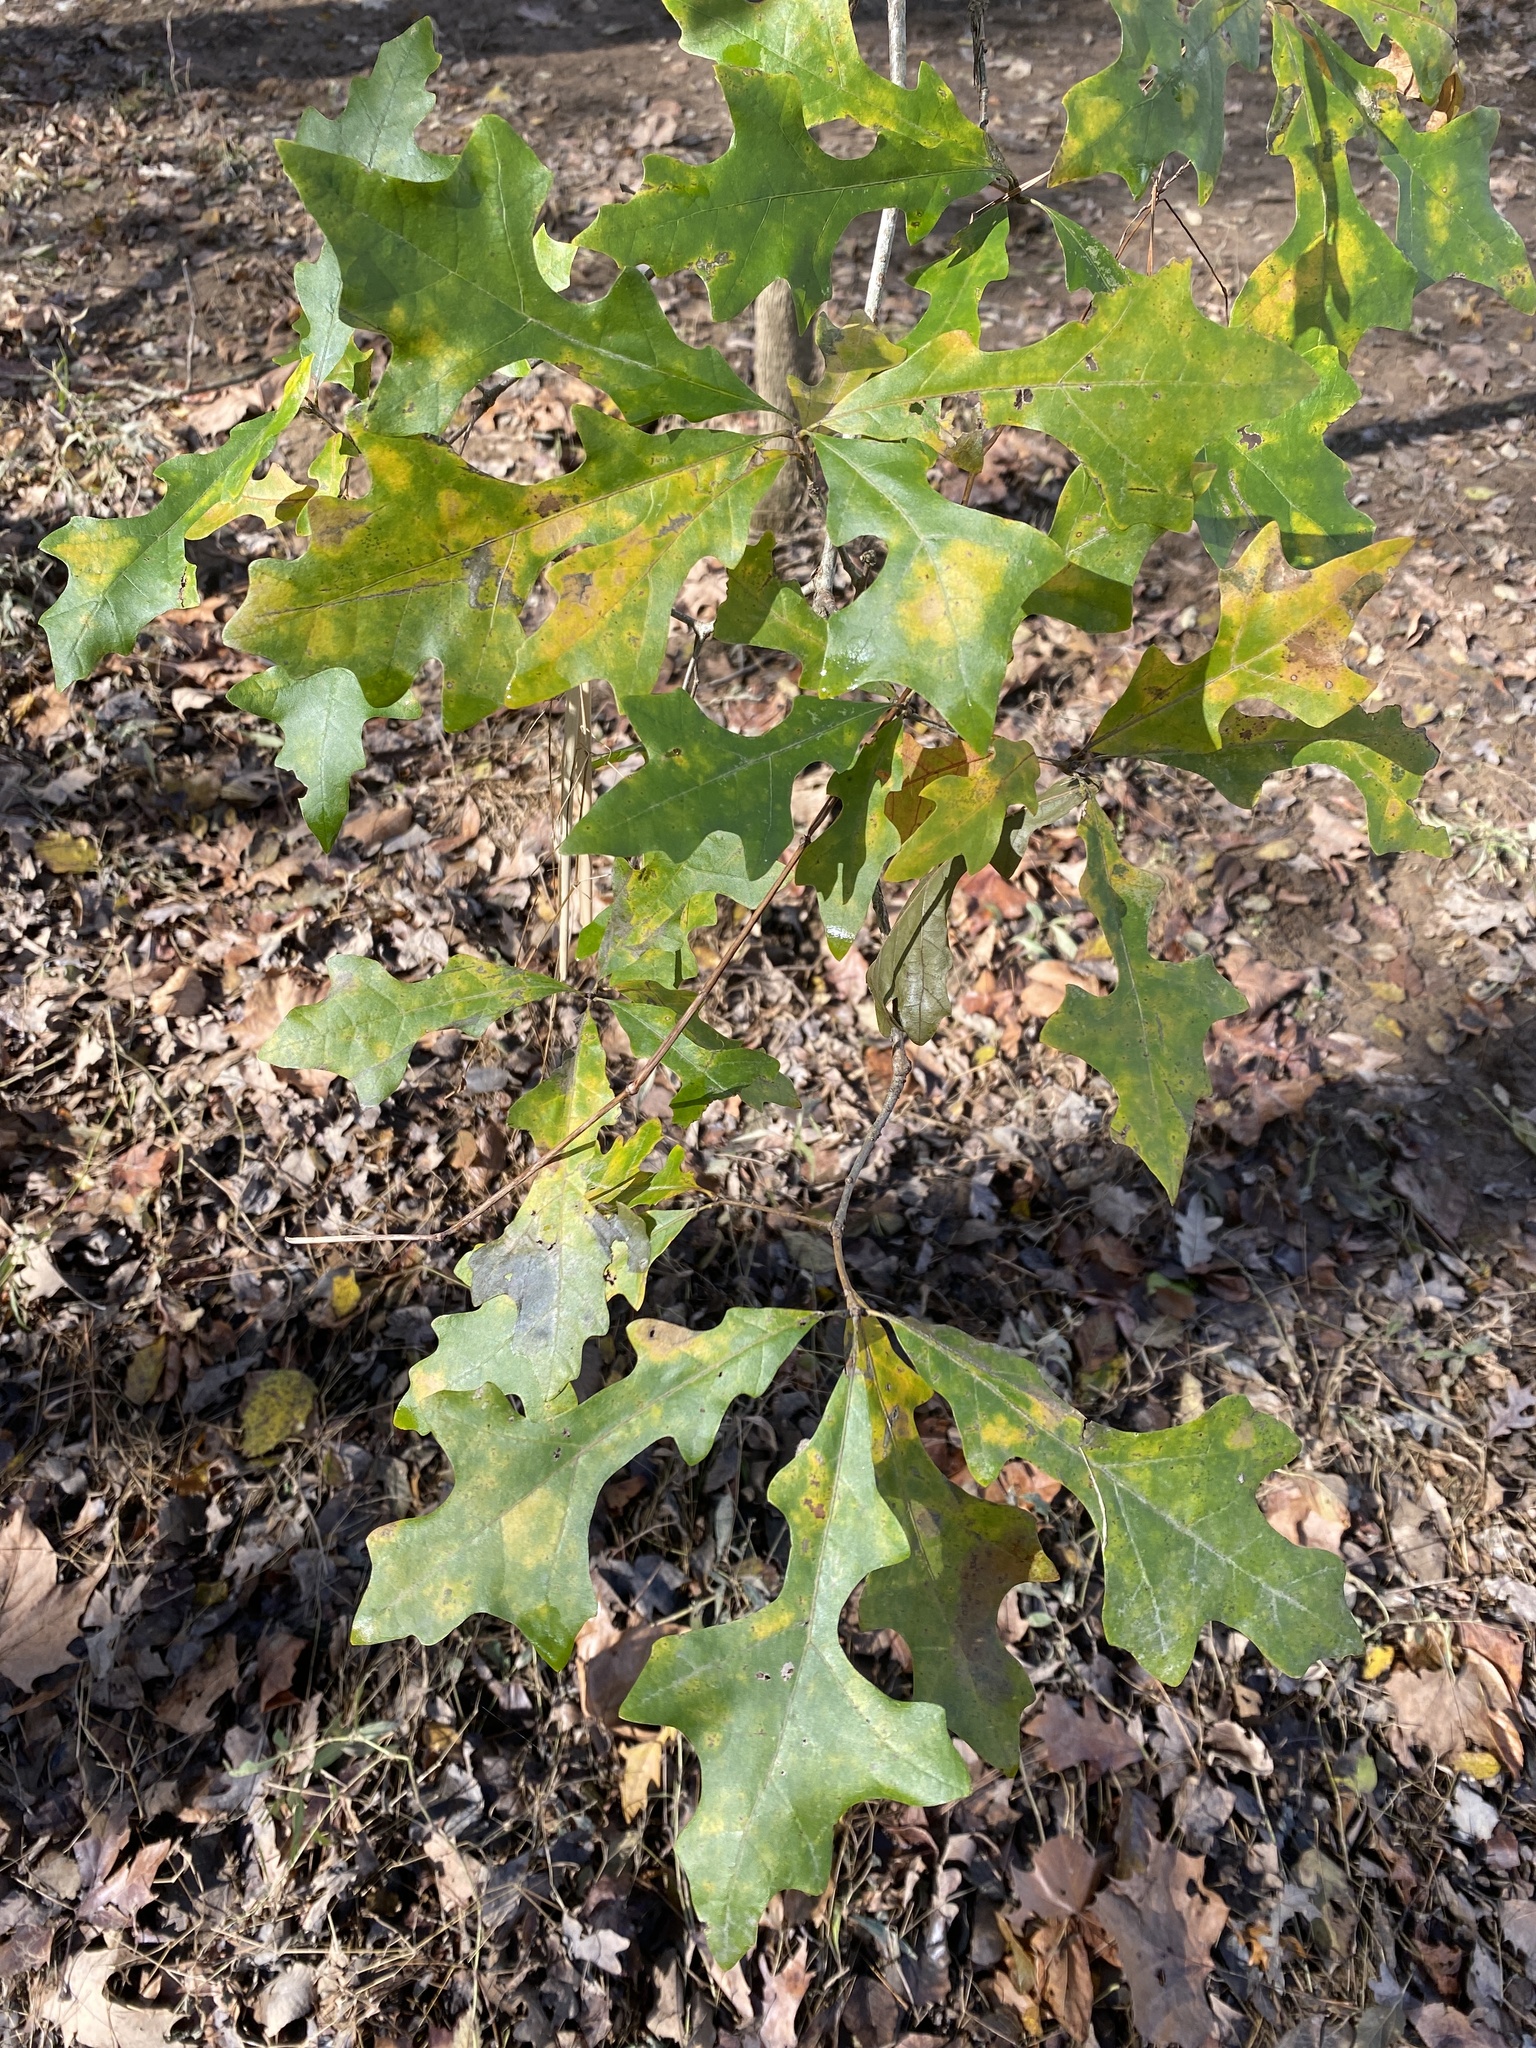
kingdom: Plantae
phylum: Tracheophyta
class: Magnoliopsida
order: Fagales
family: Fagaceae
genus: Quercus
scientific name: Quercus lyrata
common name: Overcup oak
